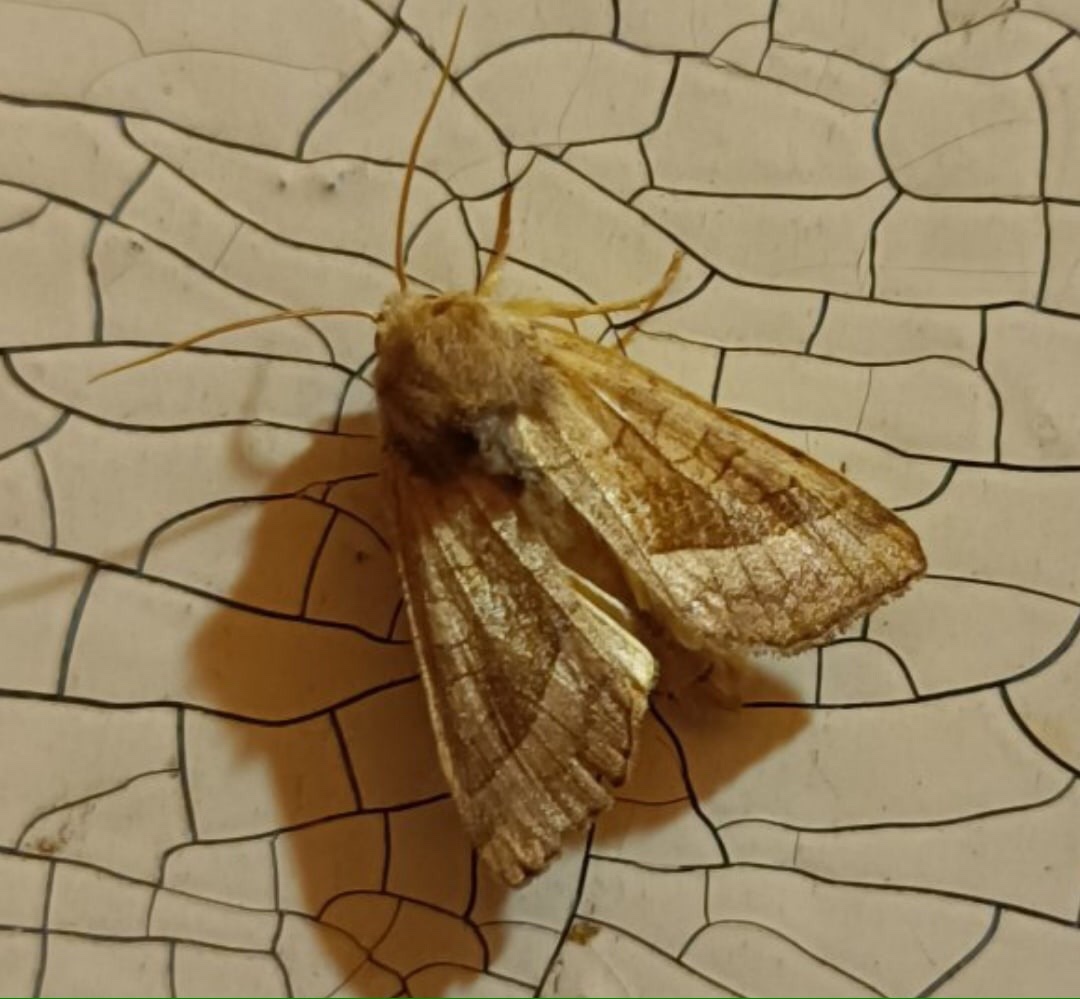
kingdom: Animalia
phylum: Arthropoda
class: Insecta
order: Lepidoptera
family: Noctuidae
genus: Hydraecia
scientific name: Hydraecia micacea
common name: Rosy rustic
